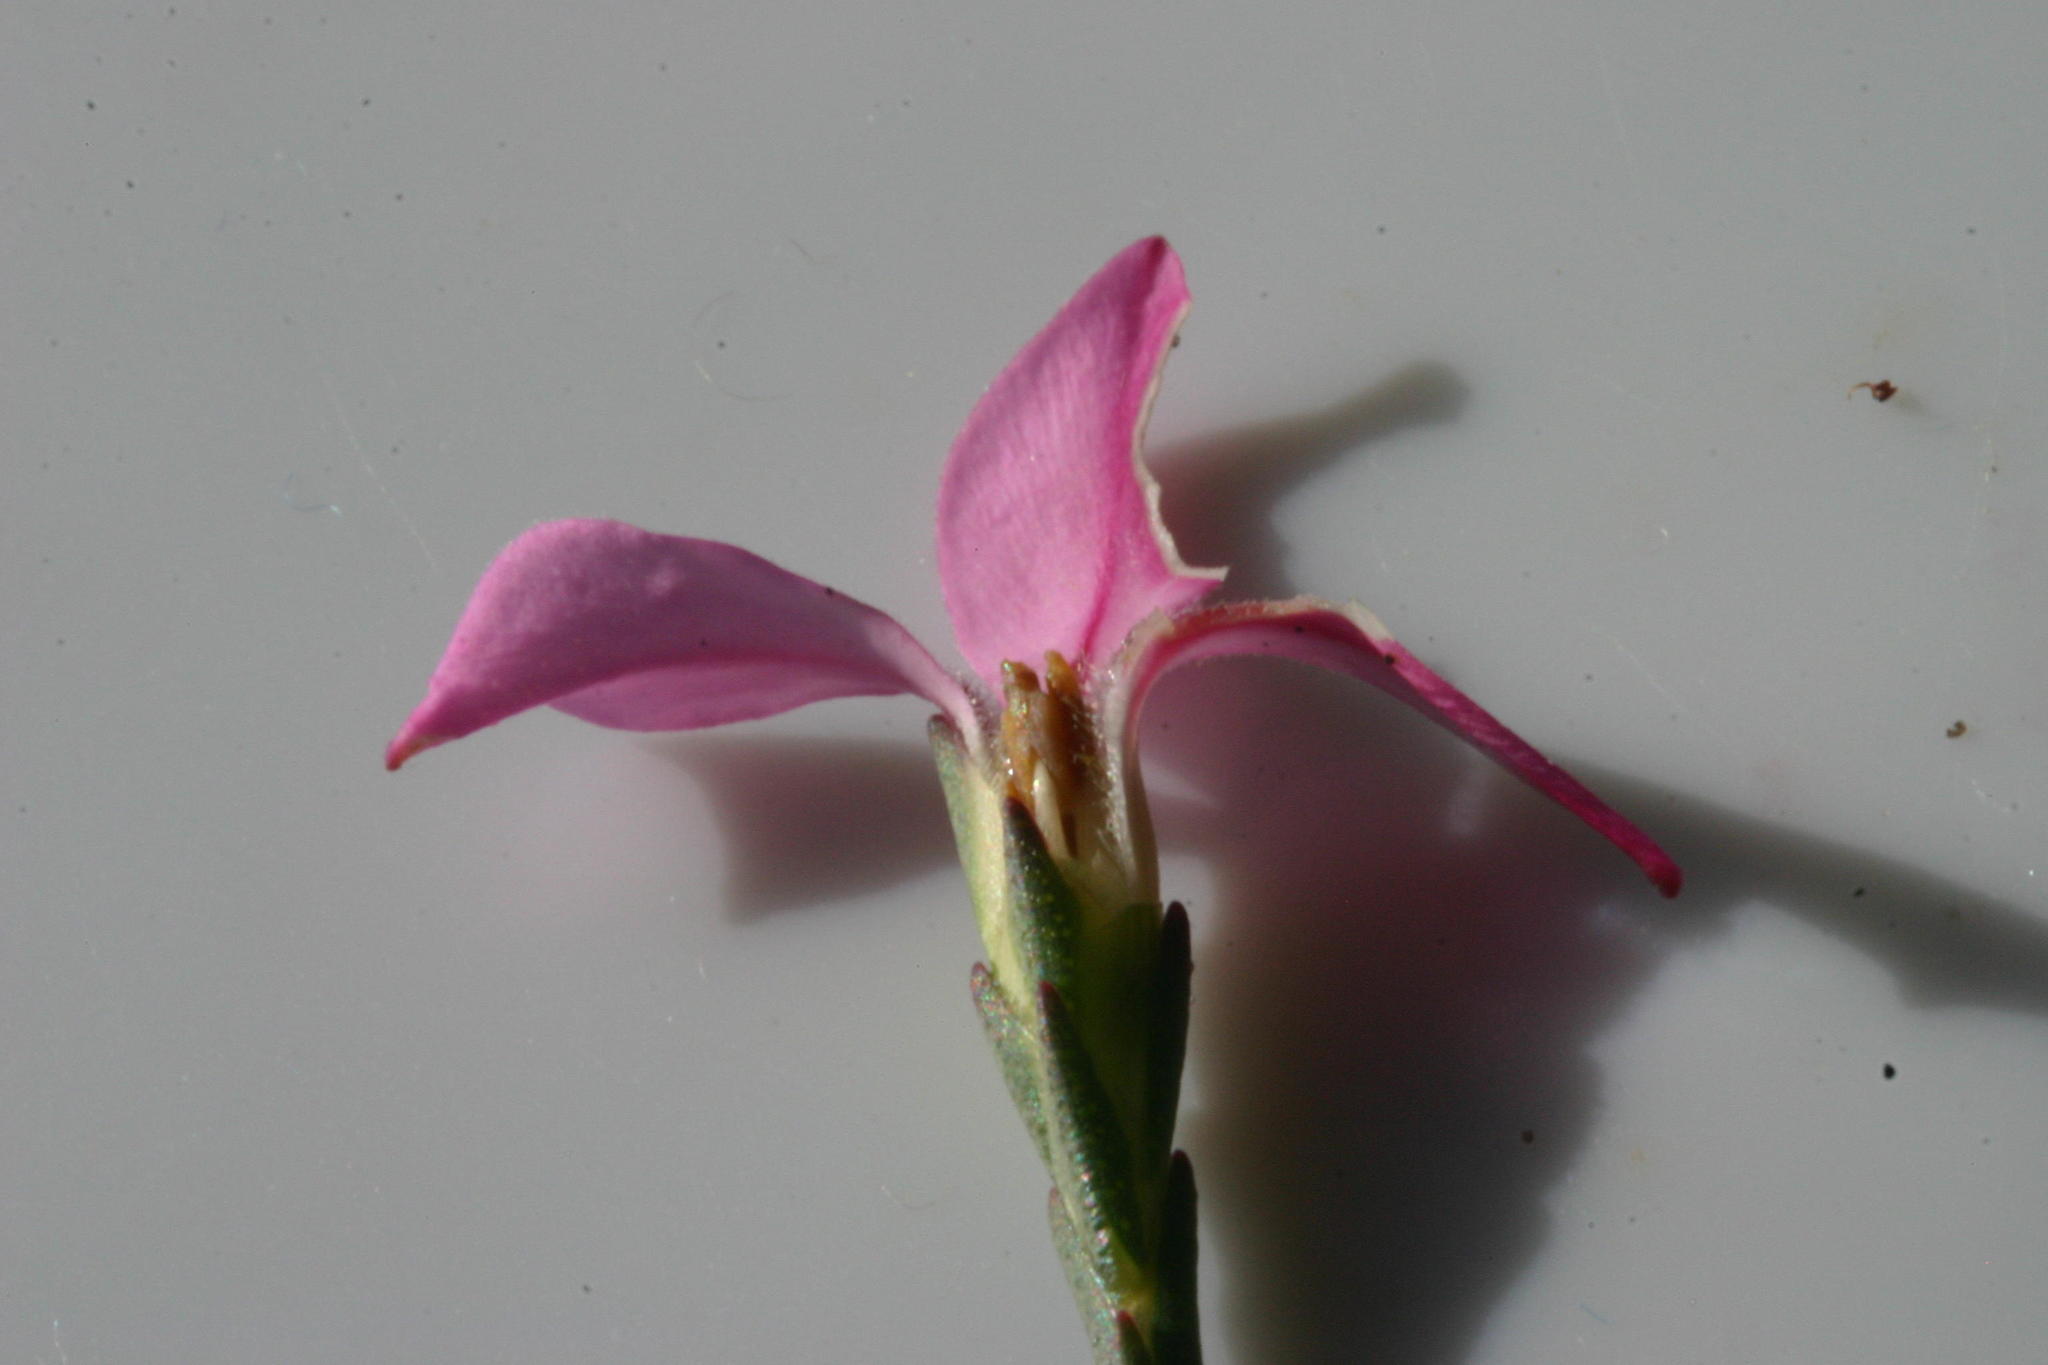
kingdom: Plantae
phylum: Tracheophyta
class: Magnoliopsida
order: Sapindales
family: Rutaceae
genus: Acmadenia
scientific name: Acmadenia nivenii
